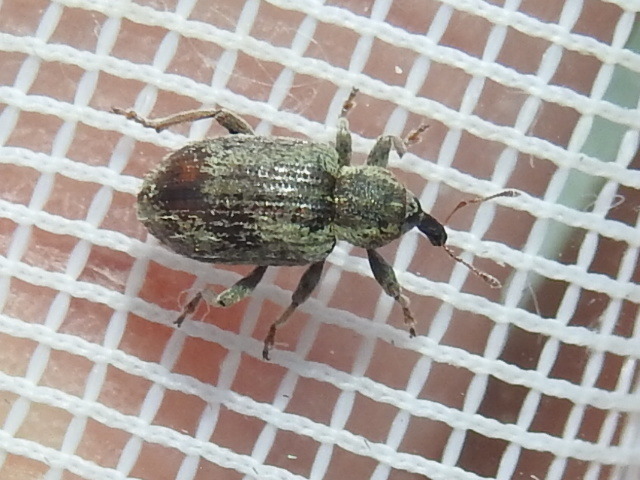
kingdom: Animalia
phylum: Arthropoda
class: Insecta
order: Coleoptera
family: Curculionidae
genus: Hypera
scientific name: Hypera postica
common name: Weevil
